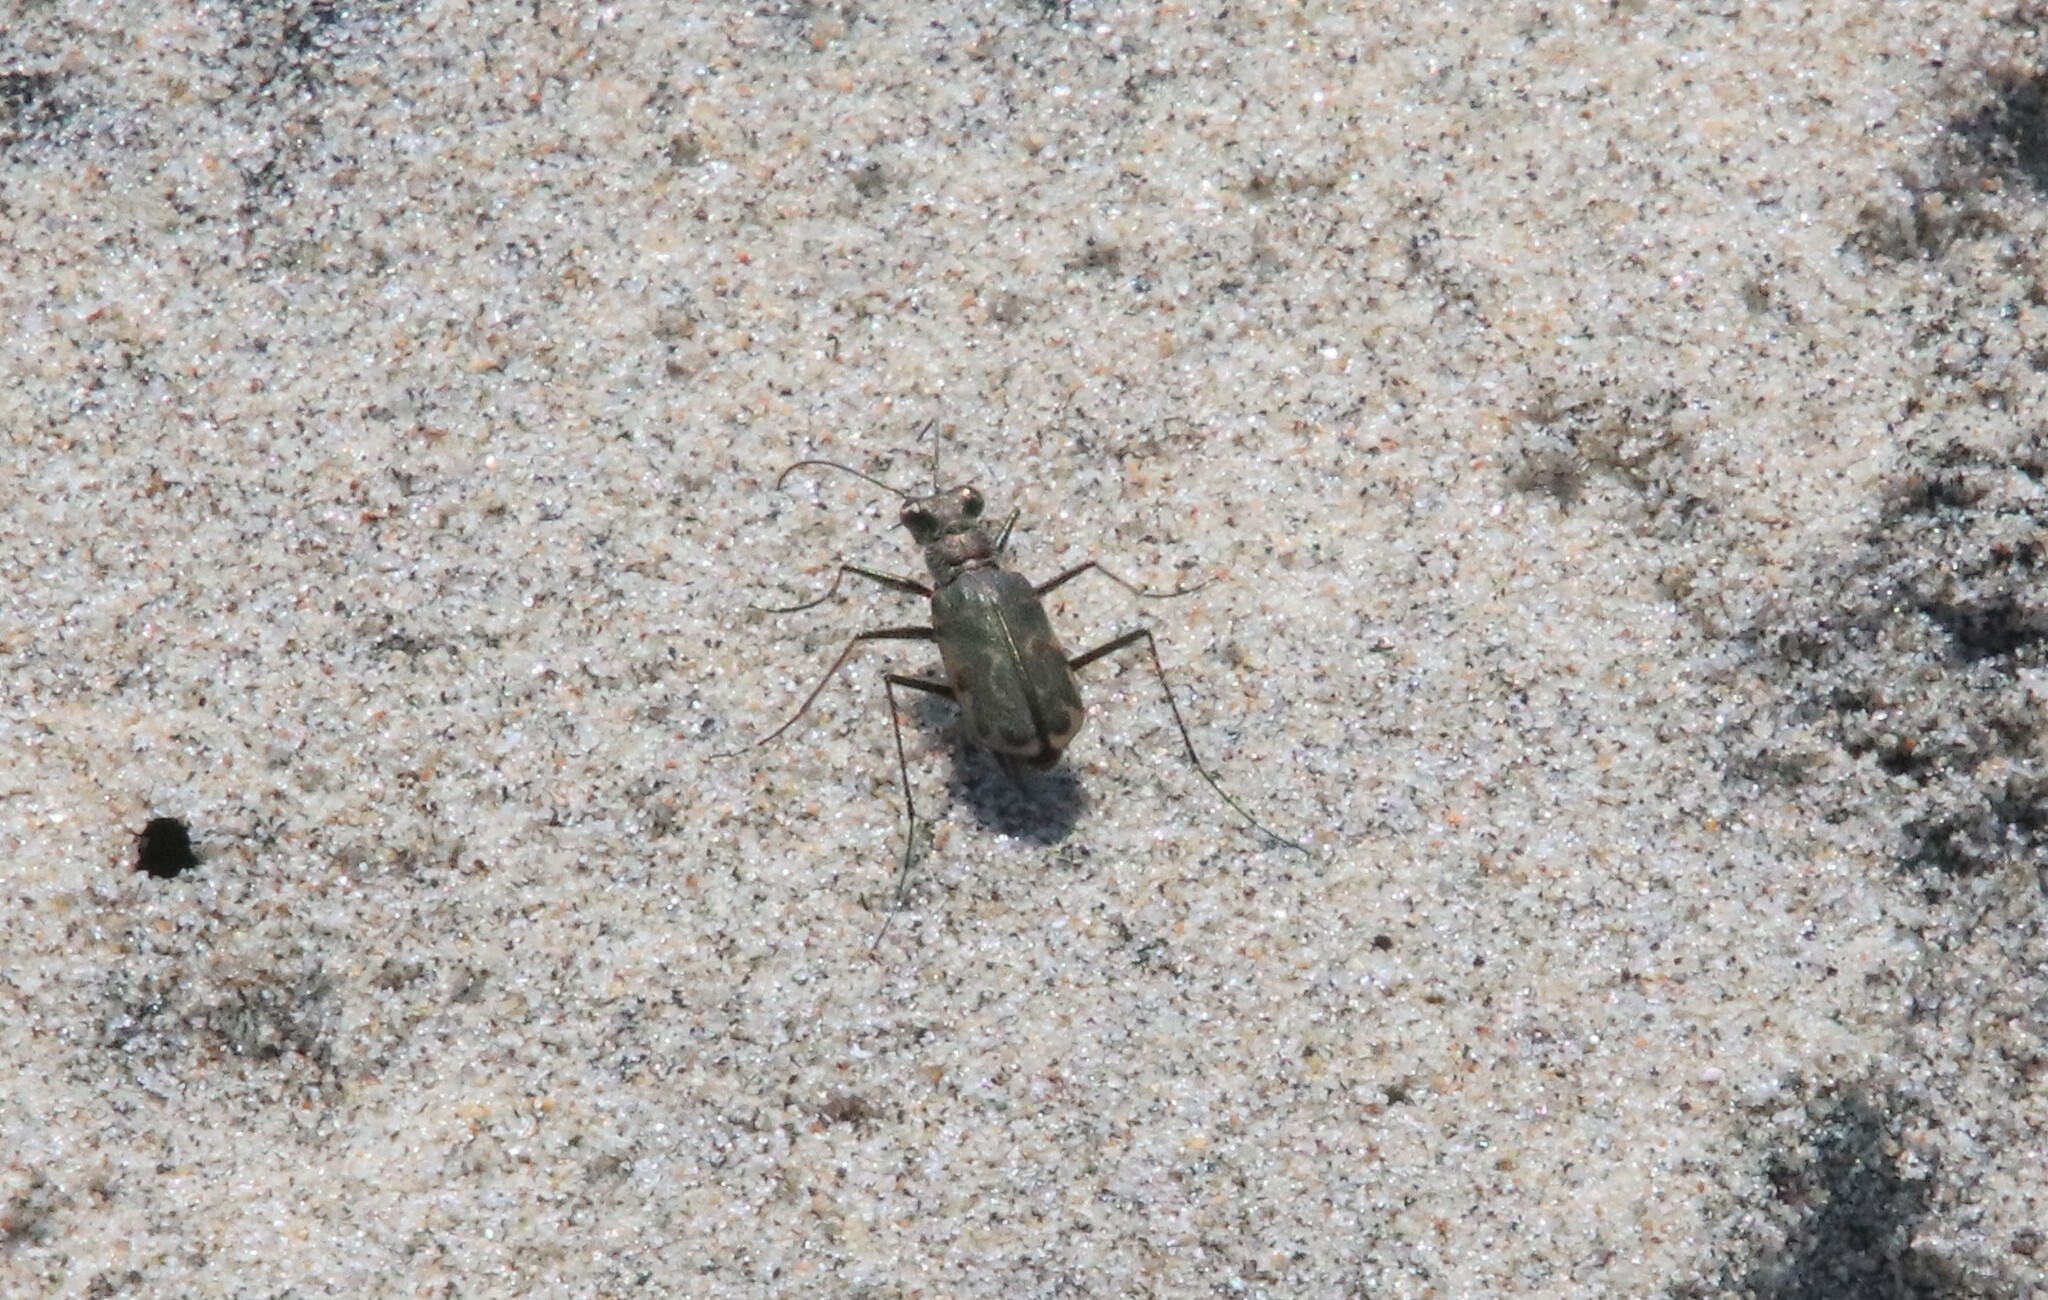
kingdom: Animalia
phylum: Arthropoda
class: Insecta
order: Coleoptera
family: Carabidae
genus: Cicindela
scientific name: Cicindela trifasciata
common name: Mudflat tiger beetle
